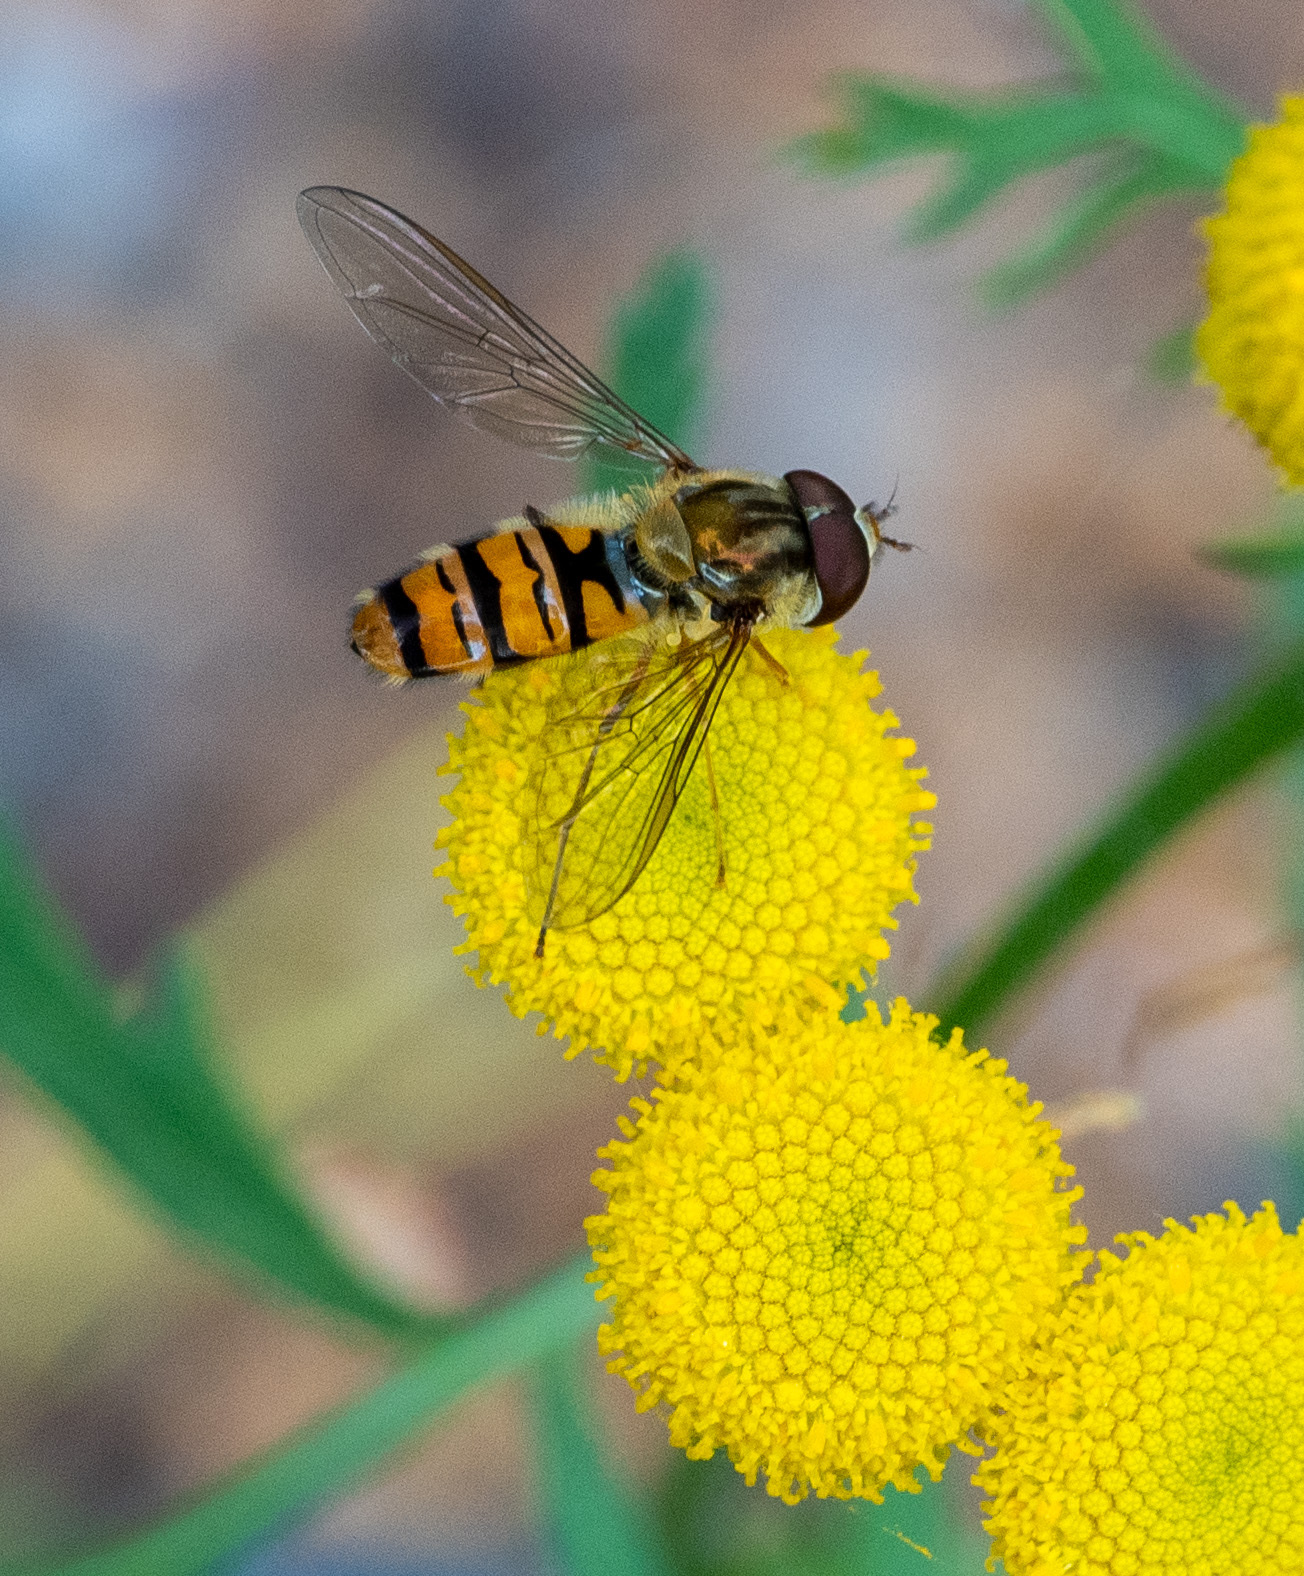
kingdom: Animalia
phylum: Arthropoda
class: Insecta
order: Diptera
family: Syrphidae
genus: Episyrphus
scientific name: Episyrphus balteatus
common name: Marmalade hoverfly
